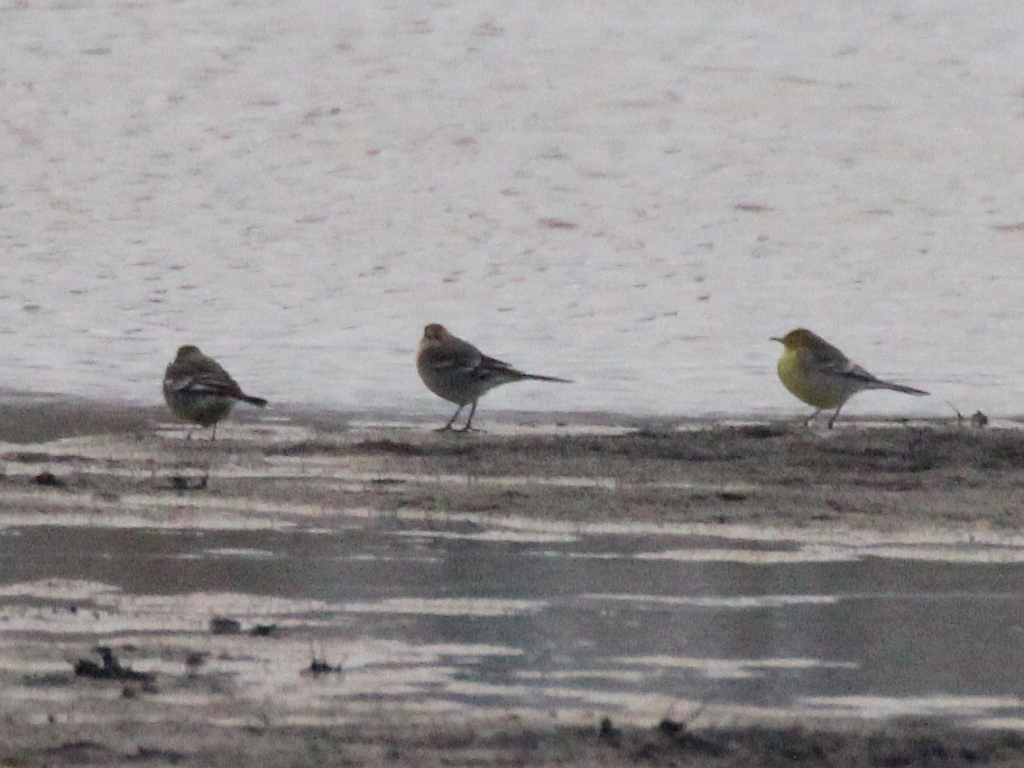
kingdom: Animalia
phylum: Chordata
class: Aves
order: Passeriformes
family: Motacillidae
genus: Motacilla
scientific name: Motacilla citreola
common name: Citrine wagtail
